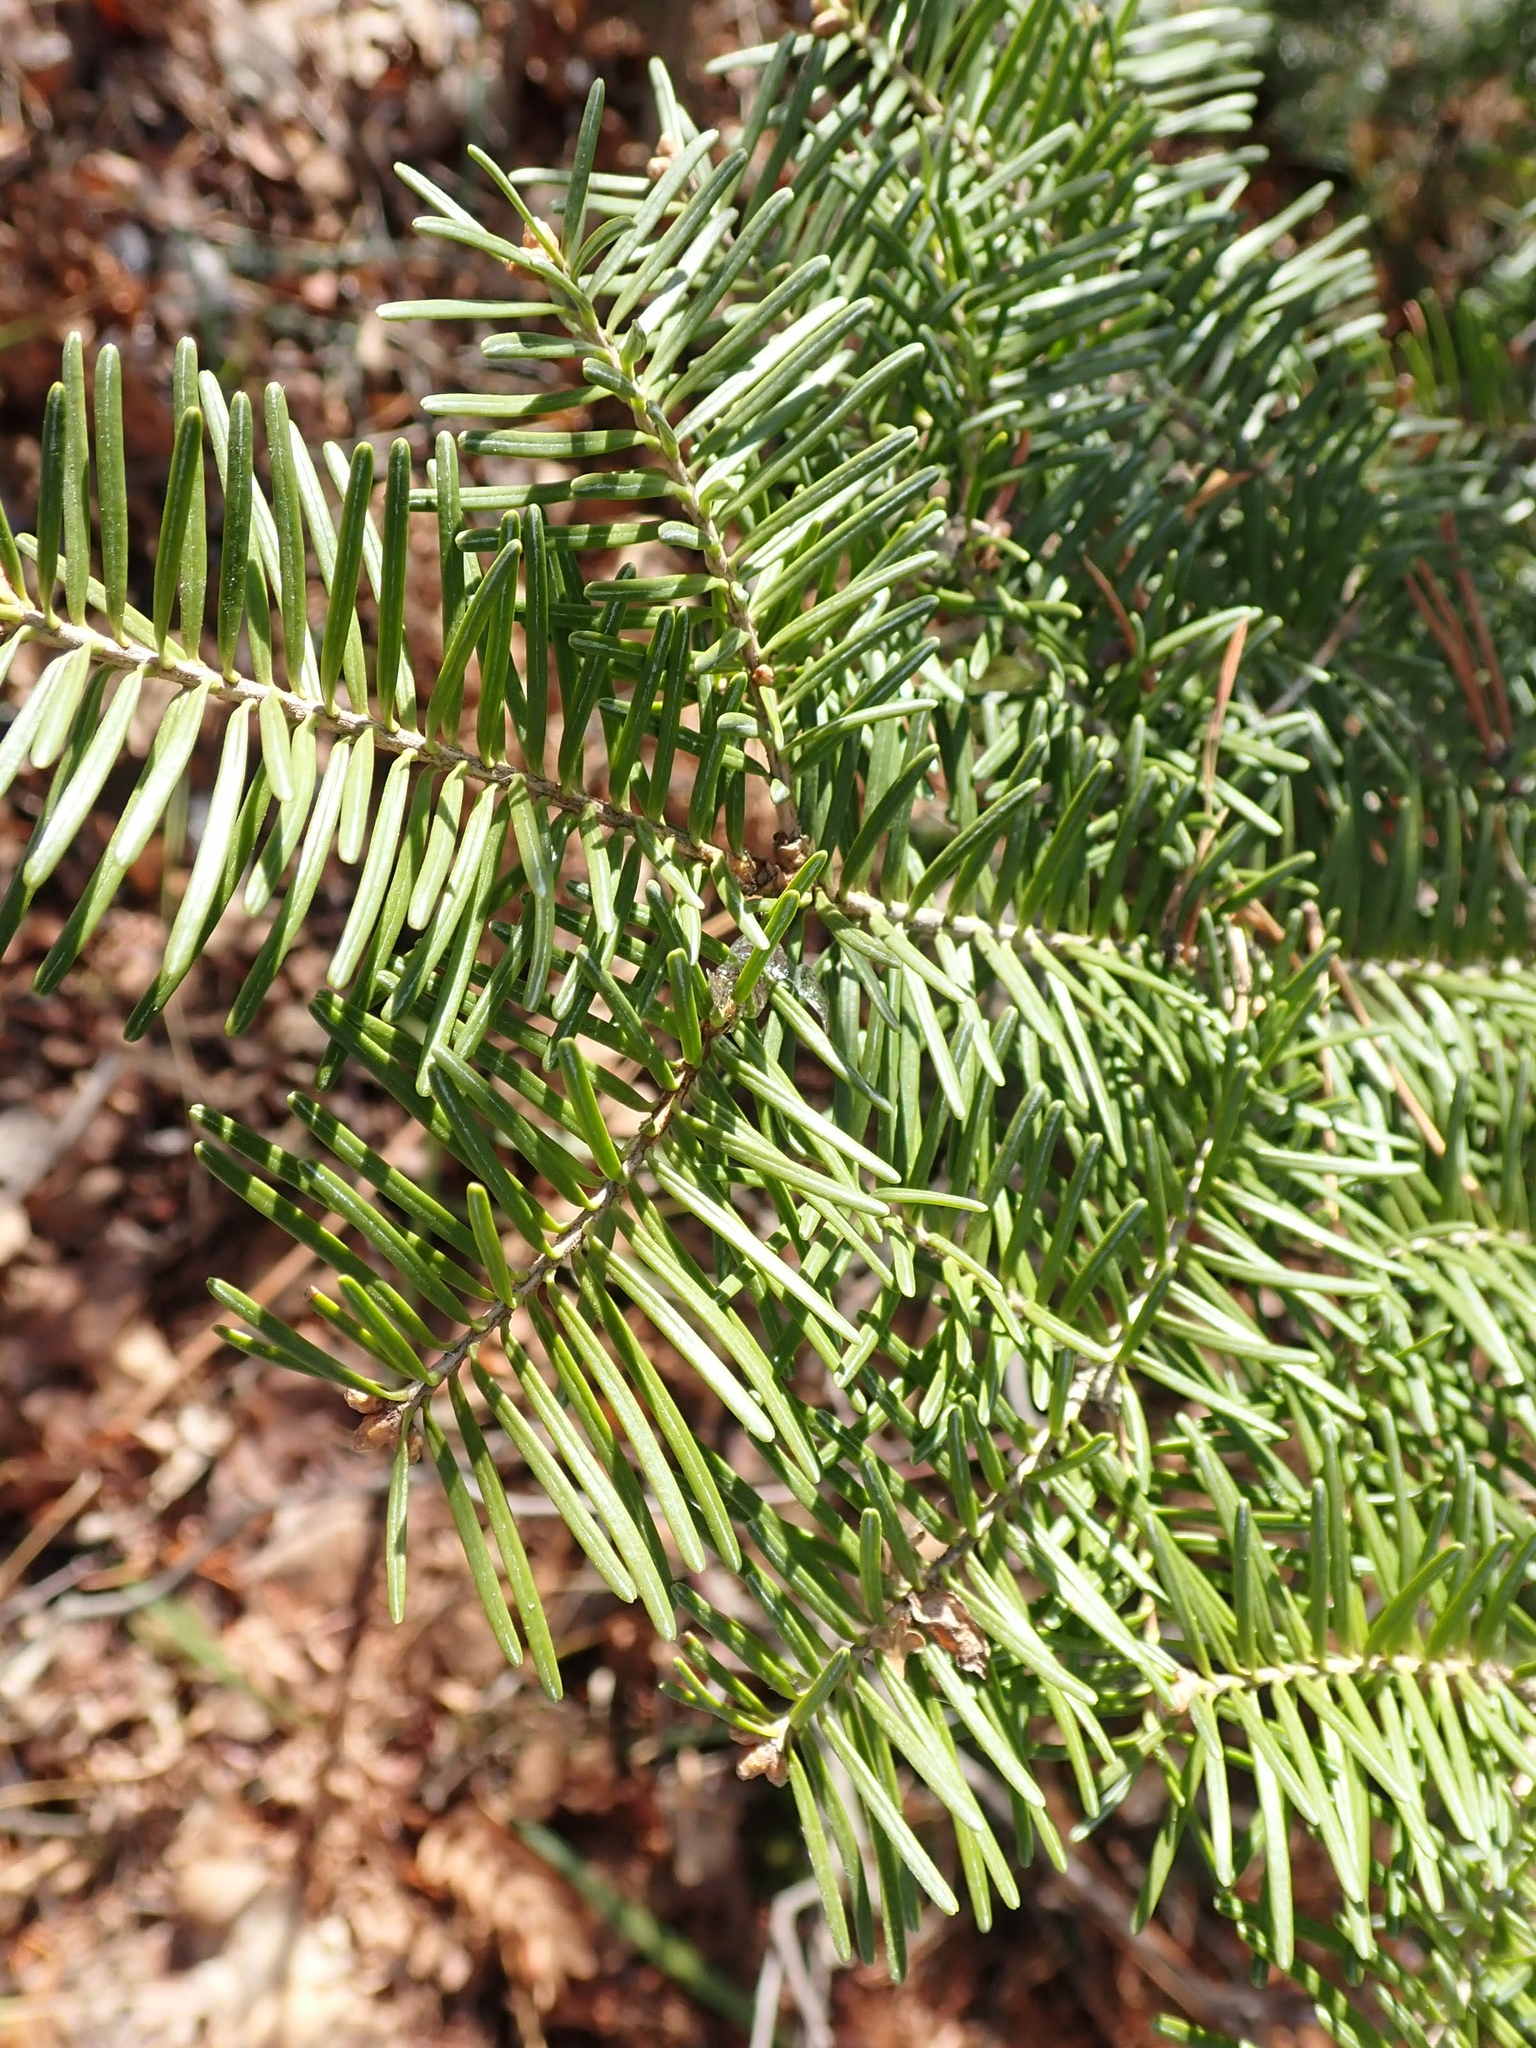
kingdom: Plantae
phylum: Tracheophyta
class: Pinopsida
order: Pinales
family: Pinaceae
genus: Abies
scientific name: Abies balsamea
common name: Balsam fir
